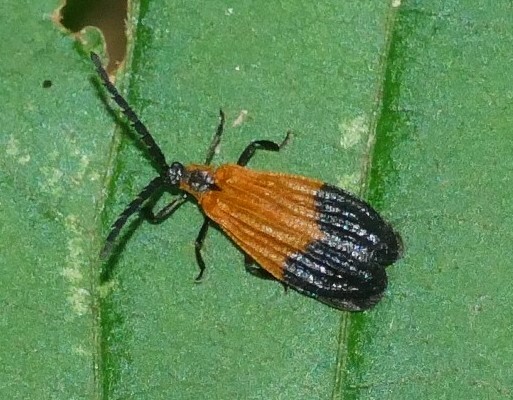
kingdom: Animalia
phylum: Arthropoda
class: Insecta
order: Coleoptera
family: Lycidae
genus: Calopteron
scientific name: Calopteron terminale
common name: End band net-winged beetle
